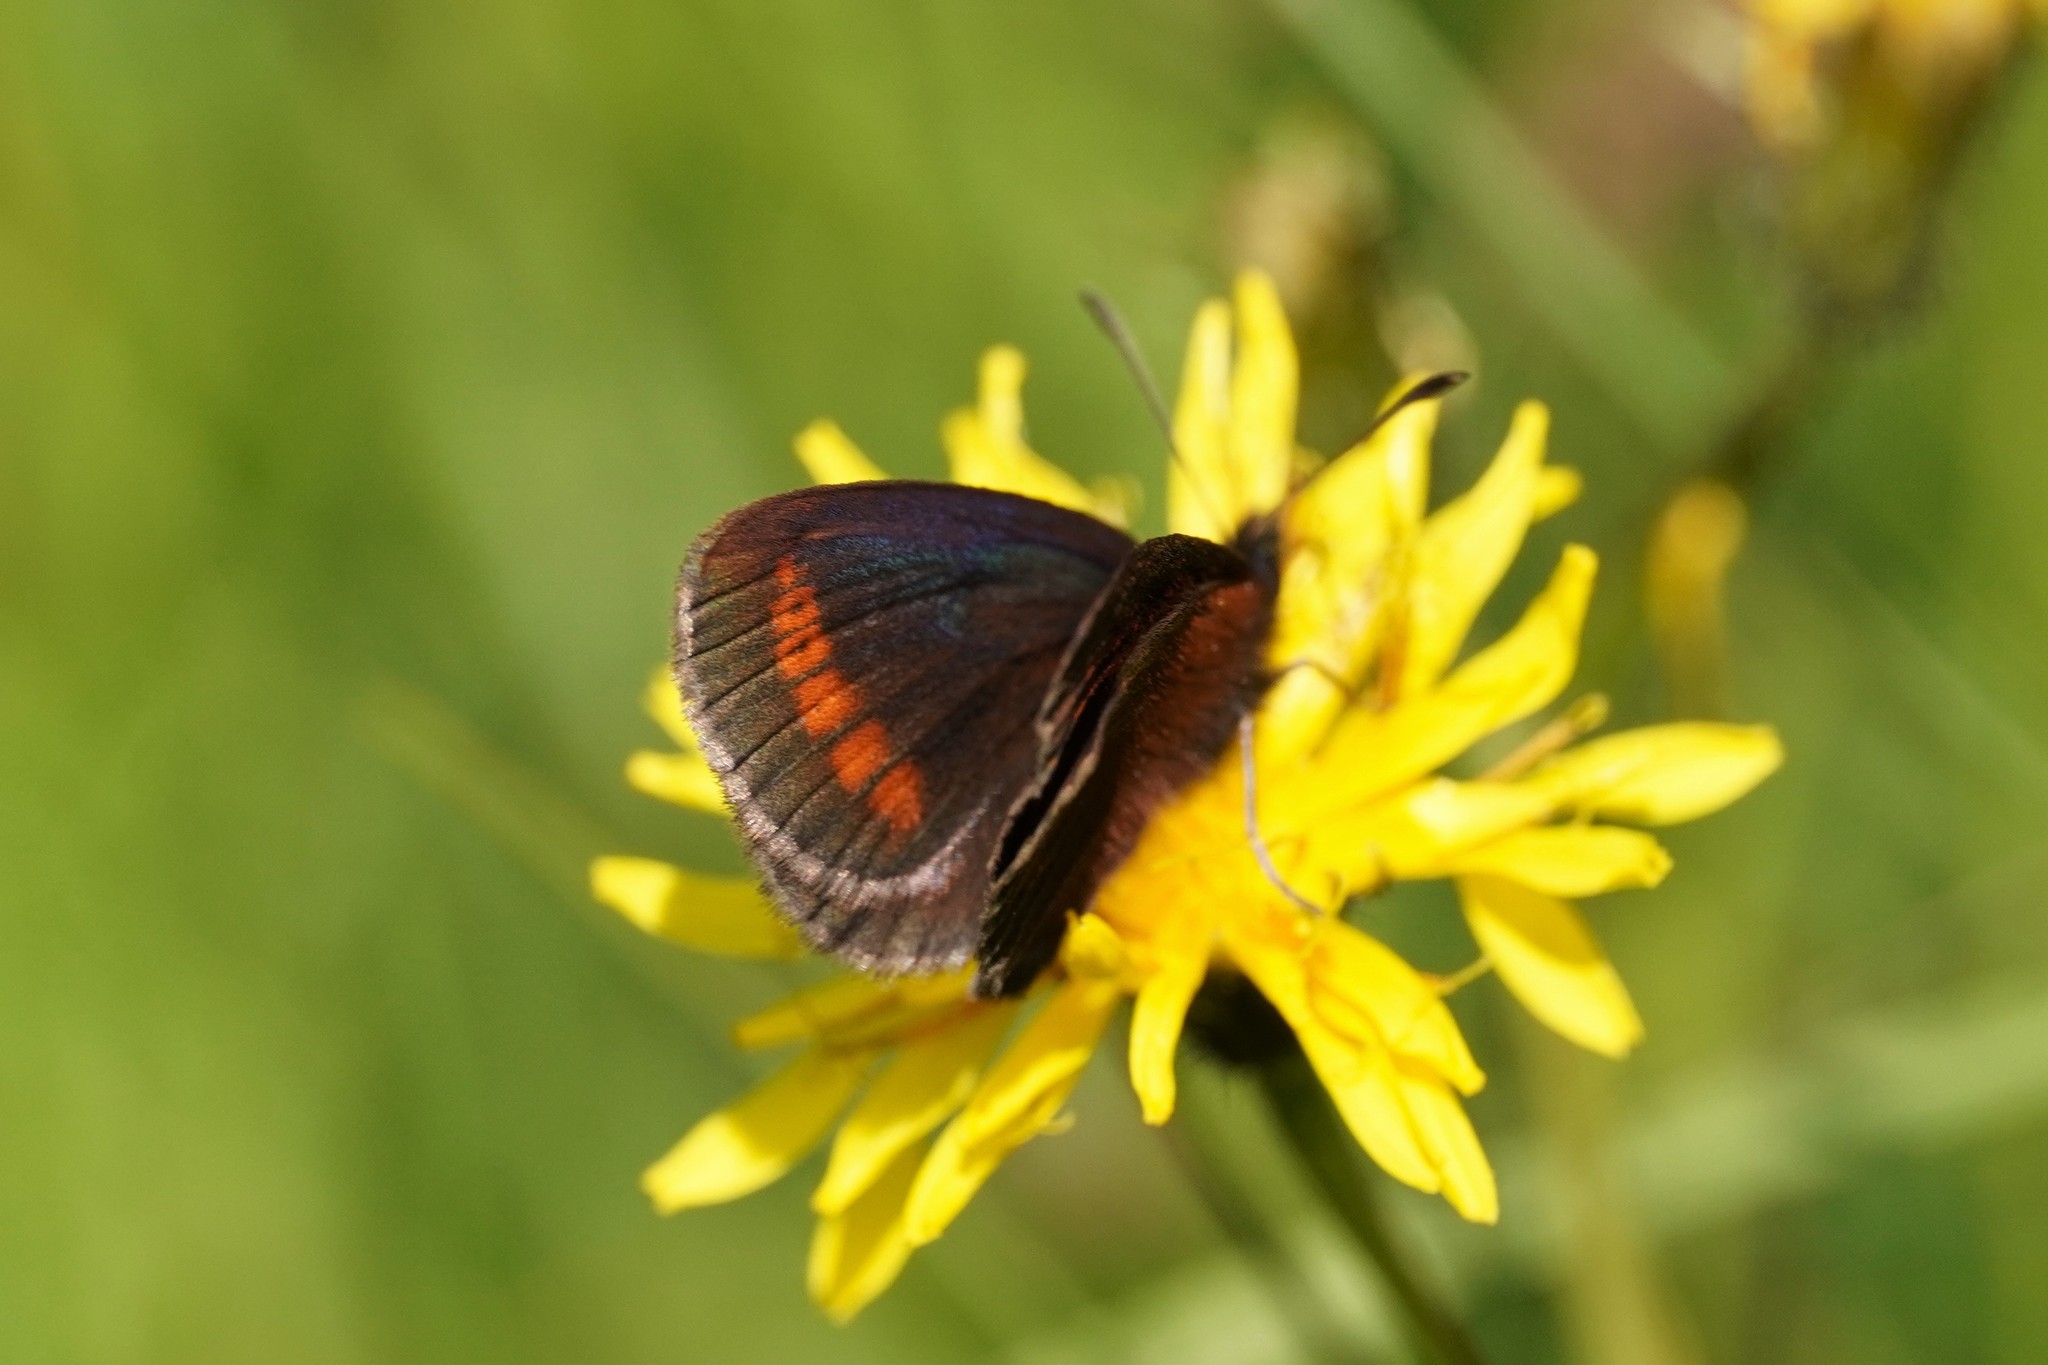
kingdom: Animalia
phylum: Arthropoda
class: Insecta
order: Lepidoptera
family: Nymphalidae
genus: Erebia
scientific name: Erebia
